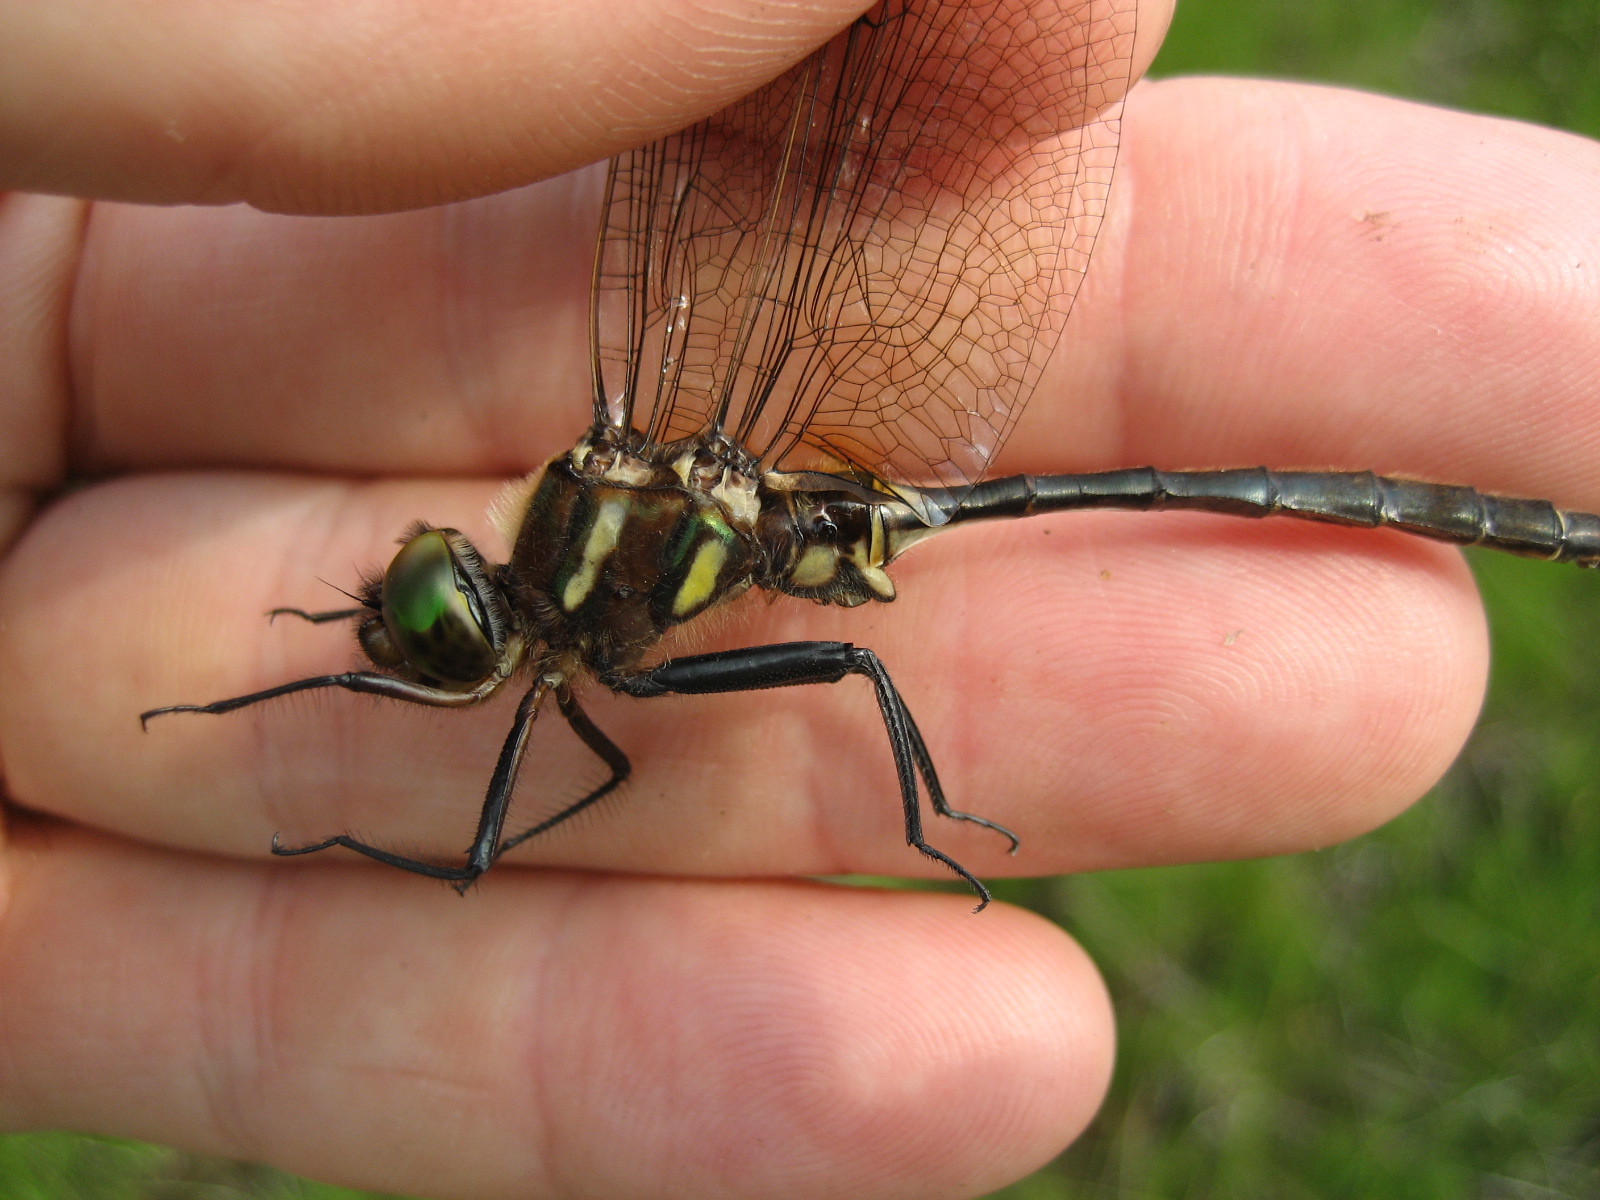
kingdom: Animalia
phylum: Arthropoda
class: Insecta
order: Odonata
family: Corduliidae
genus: Somatochlora
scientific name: Somatochlora hineana
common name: Hine's emerald
